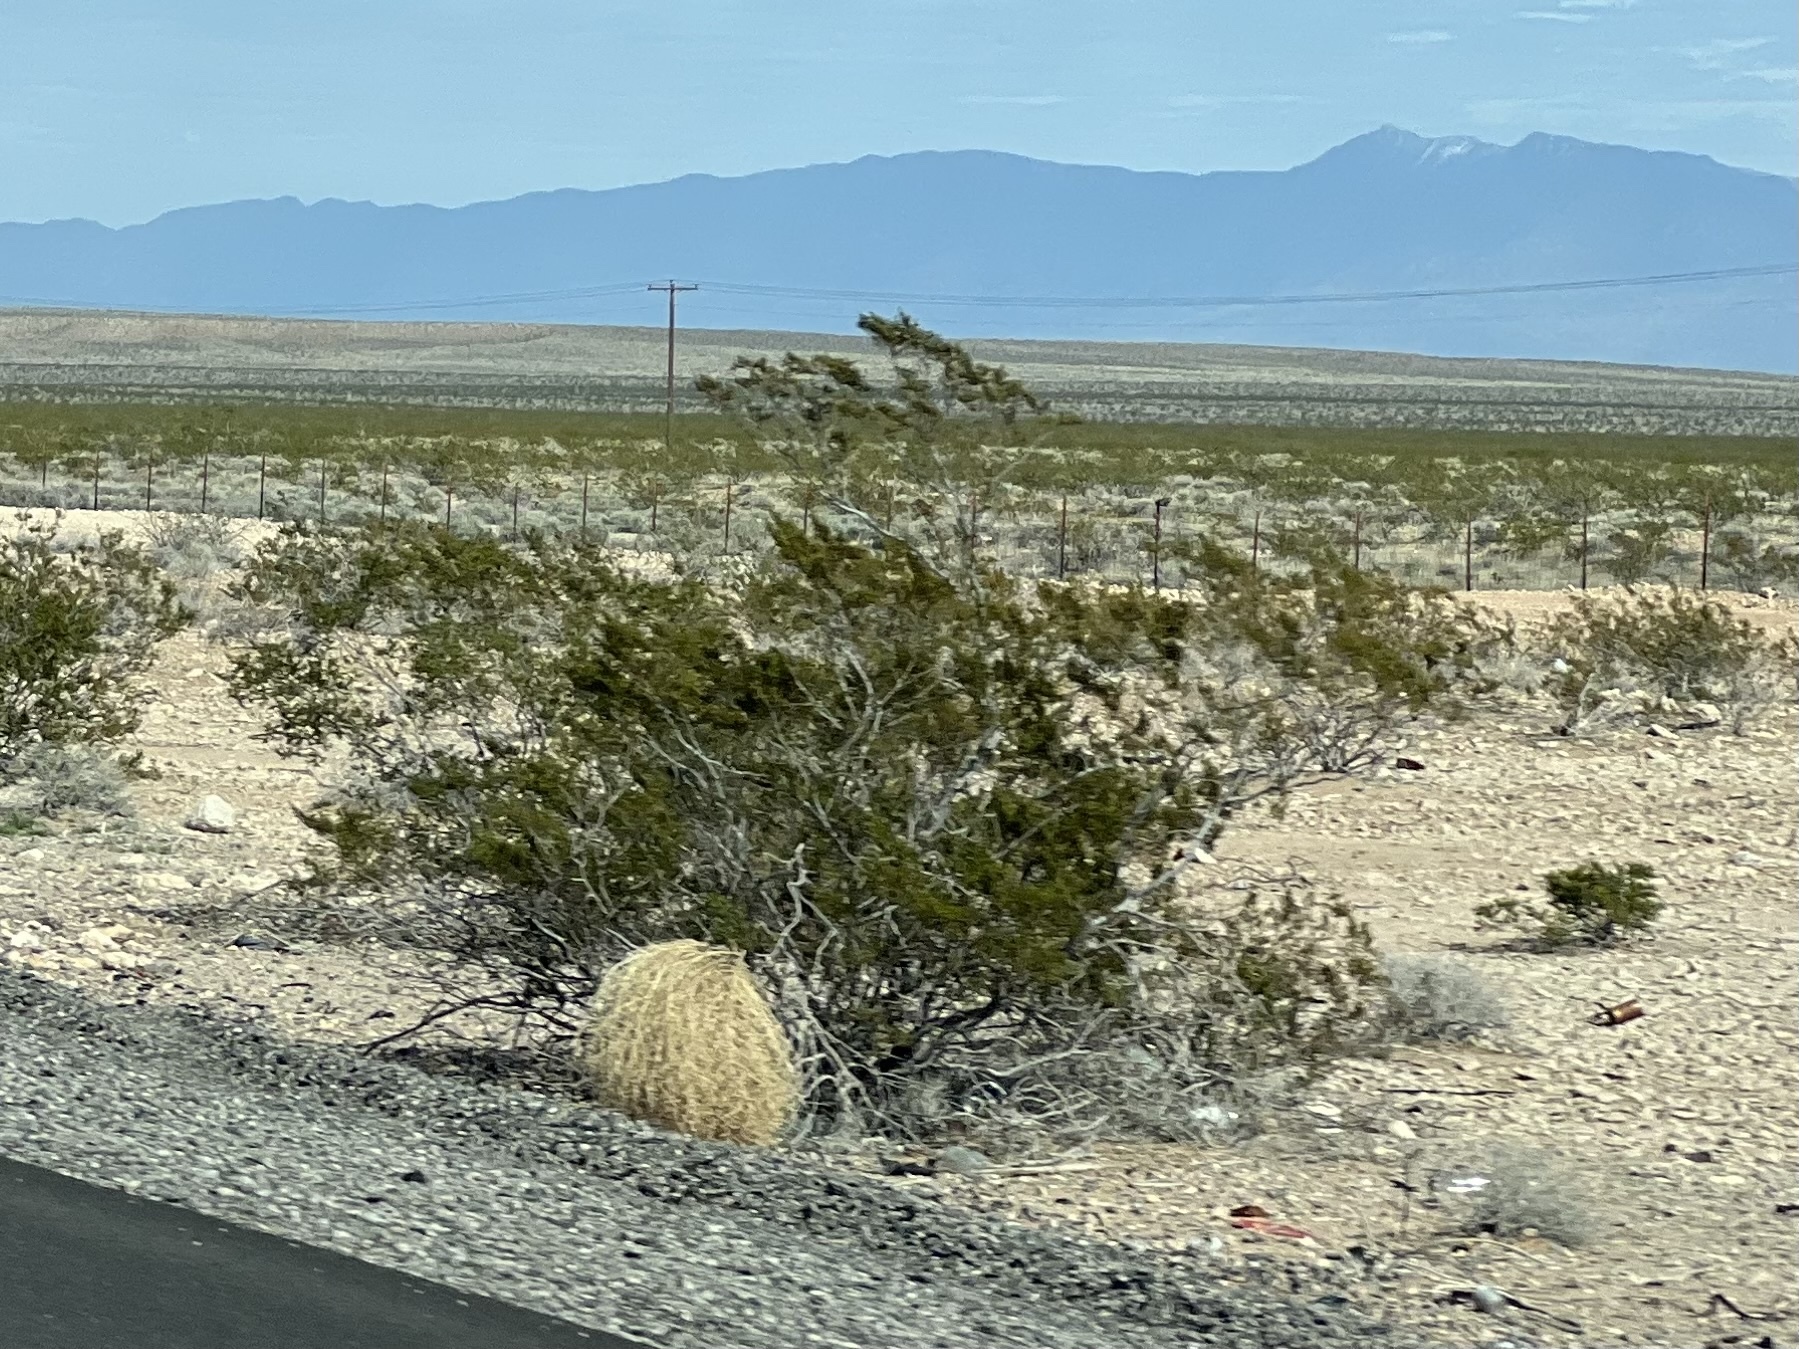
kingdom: Plantae
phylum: Tracheophyta
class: Magnoliopsida
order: Zygophyllales
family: Zygophyllaceae
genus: Larrea
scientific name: Larrea tridentata
